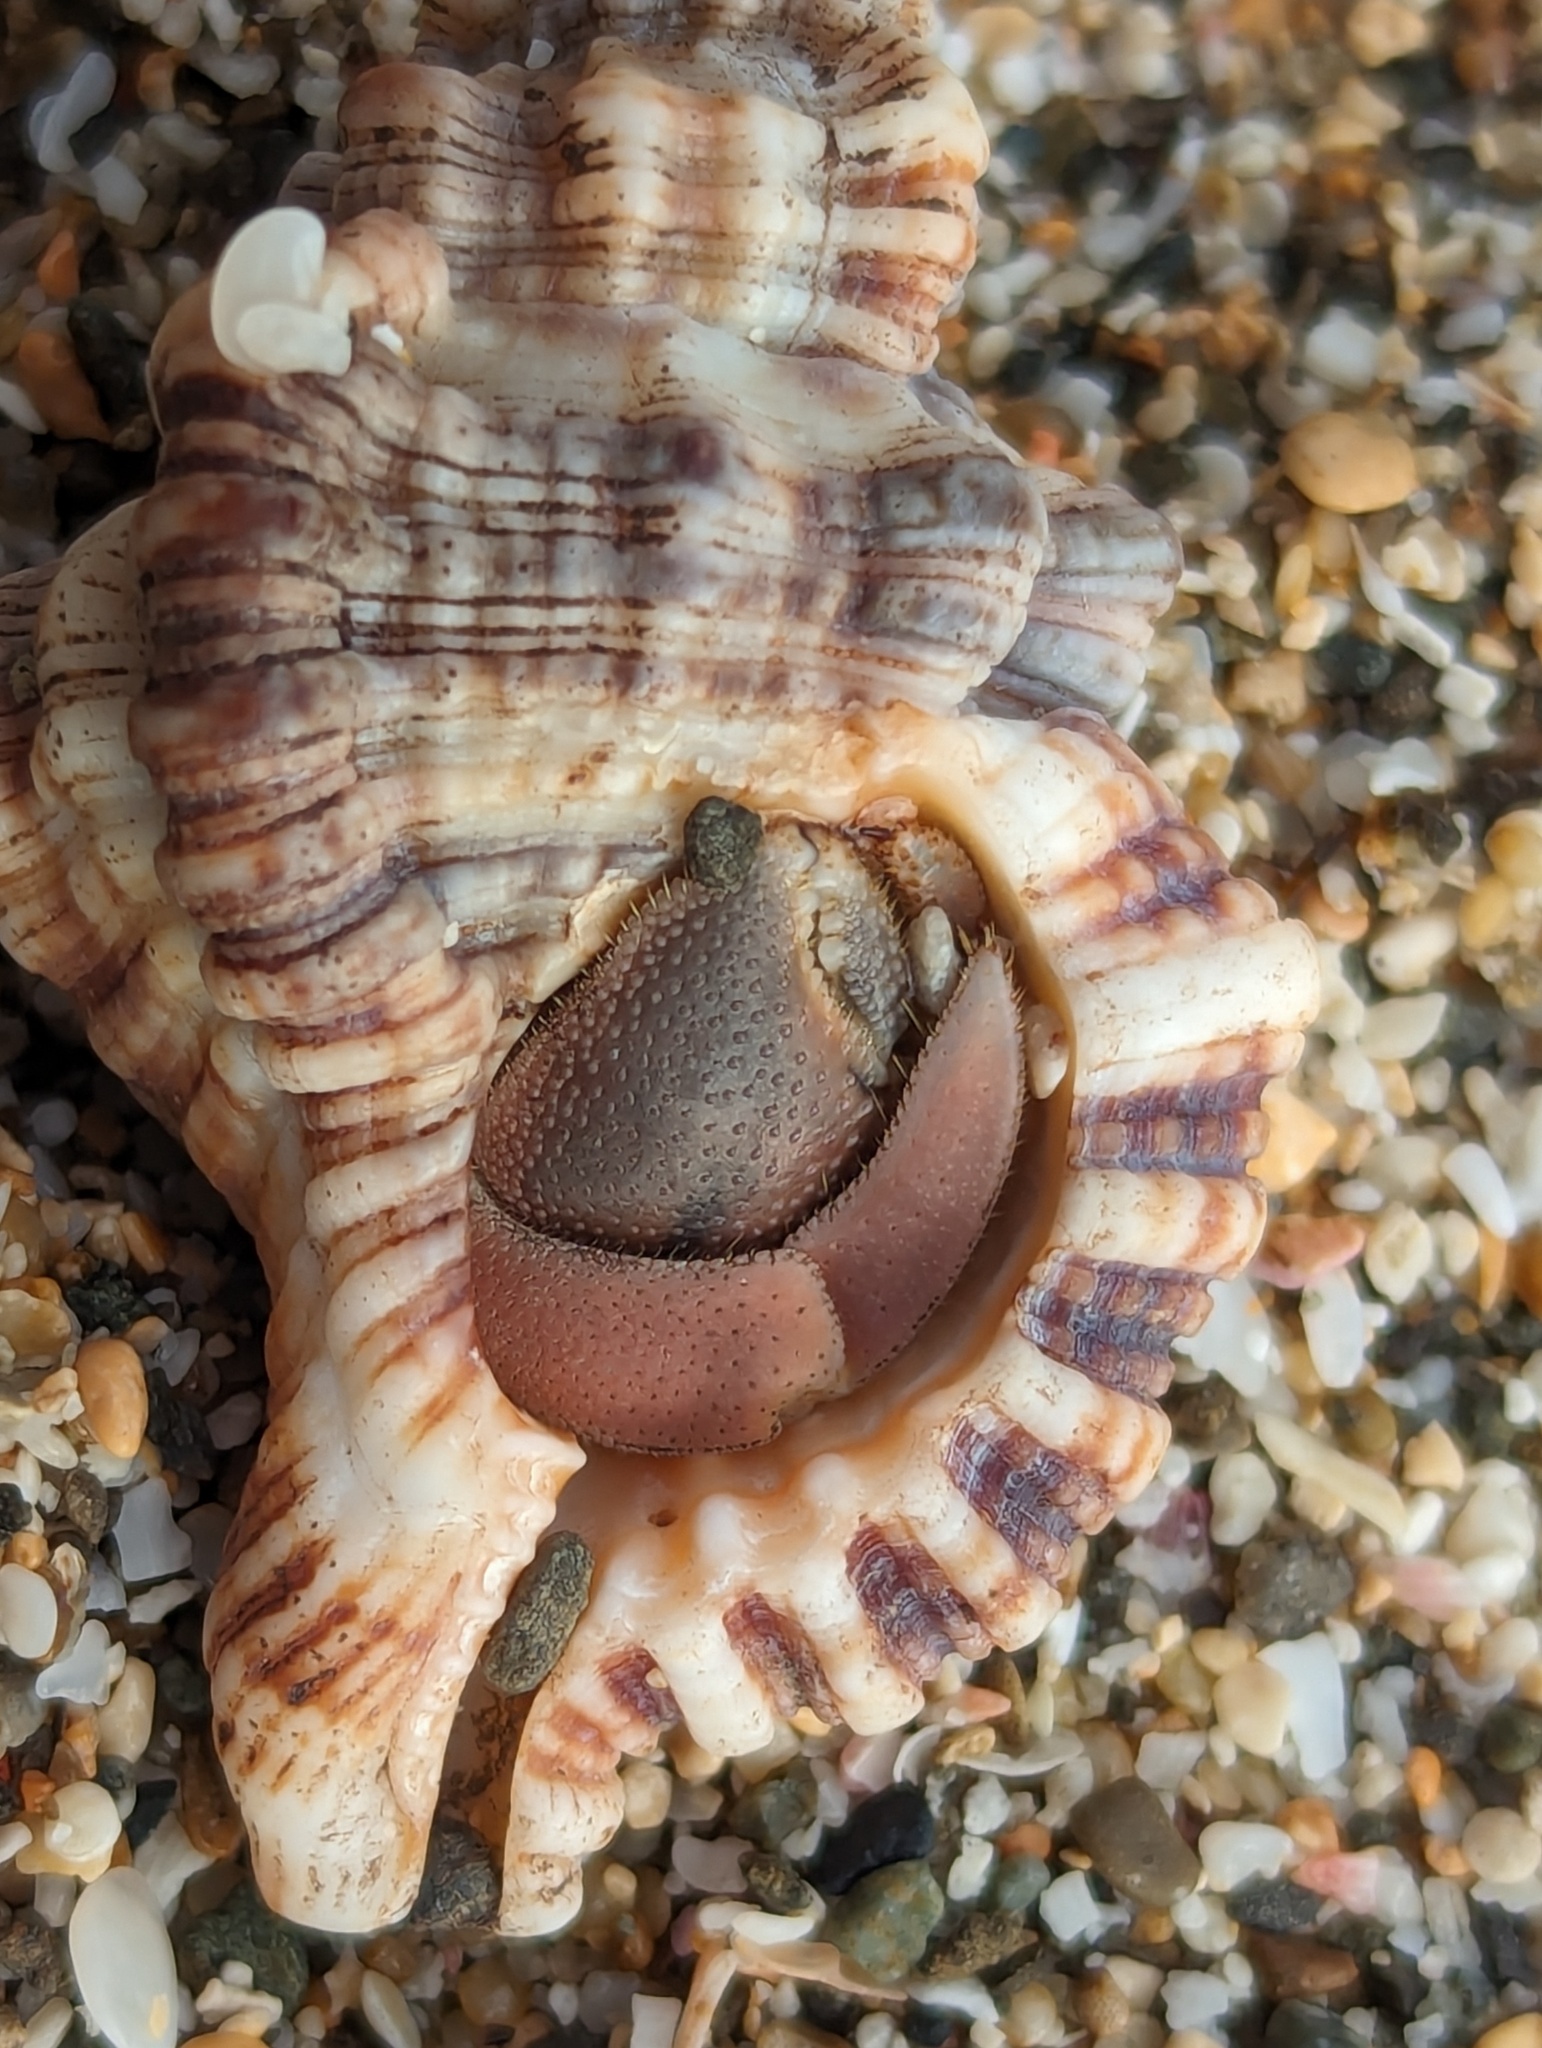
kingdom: Animalia
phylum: Mollusca
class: Gastropoda
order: Littorinimorpha
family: Cymatiidae
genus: Monoplex
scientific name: Monoplex nicobaricus
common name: Goldmouth triton
